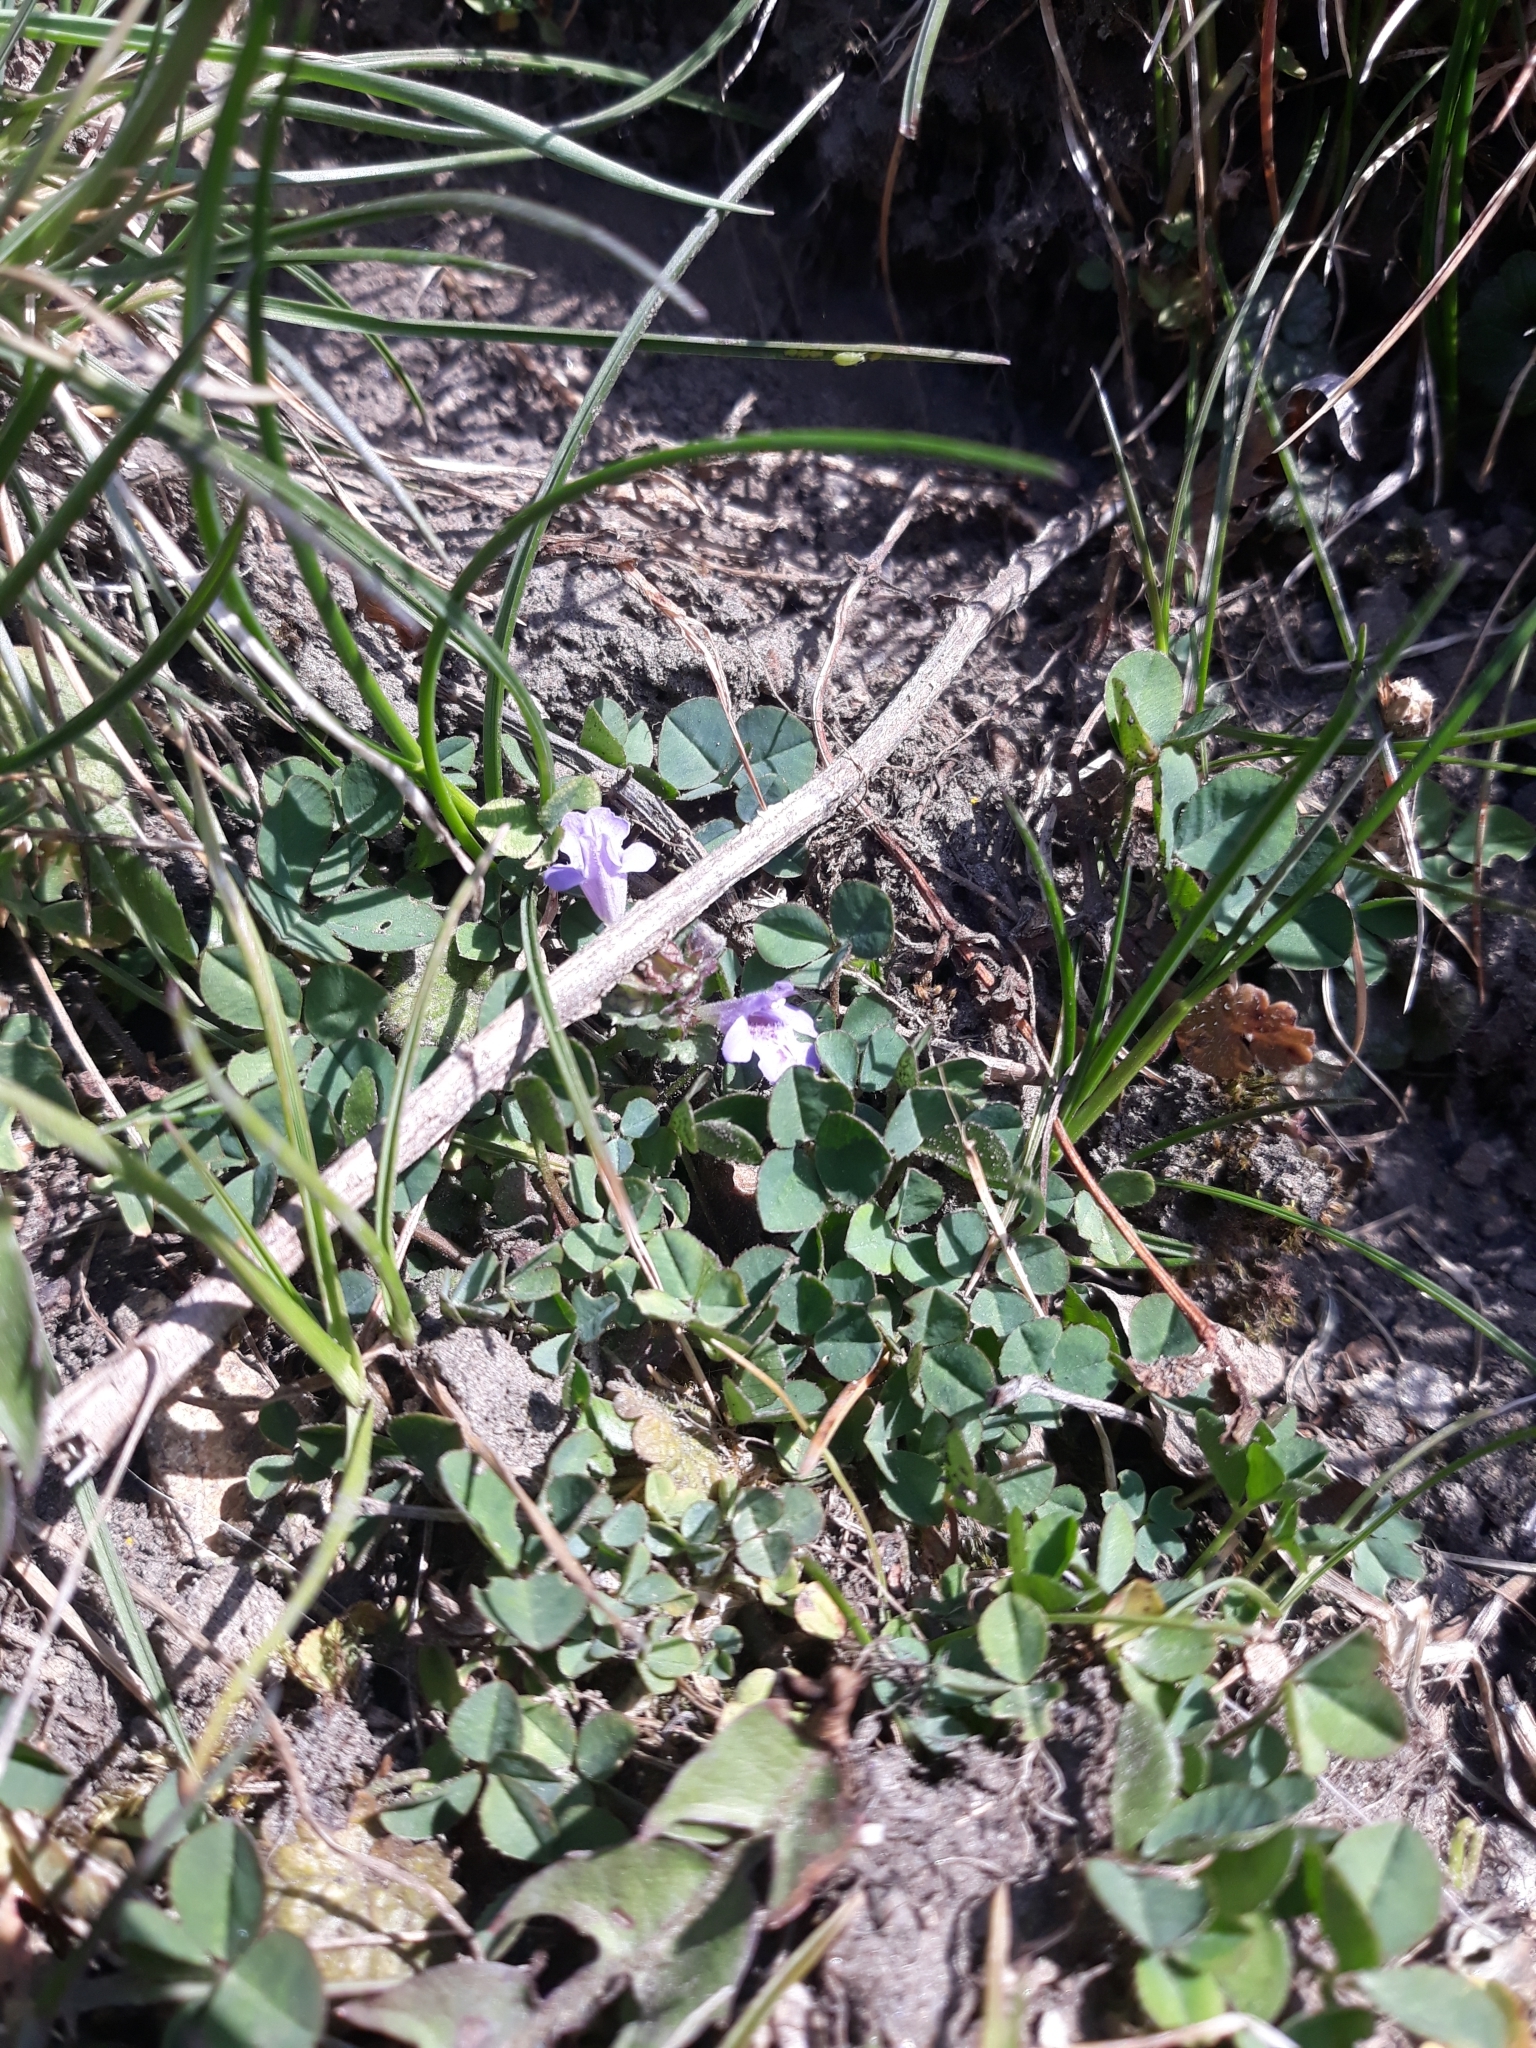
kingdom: Plantae
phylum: Tracheophyta
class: Magnoliopsida
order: Lamiales
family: Lamiaceae
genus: Glechoma
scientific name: Glechoma hederacea
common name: Ground ivy
